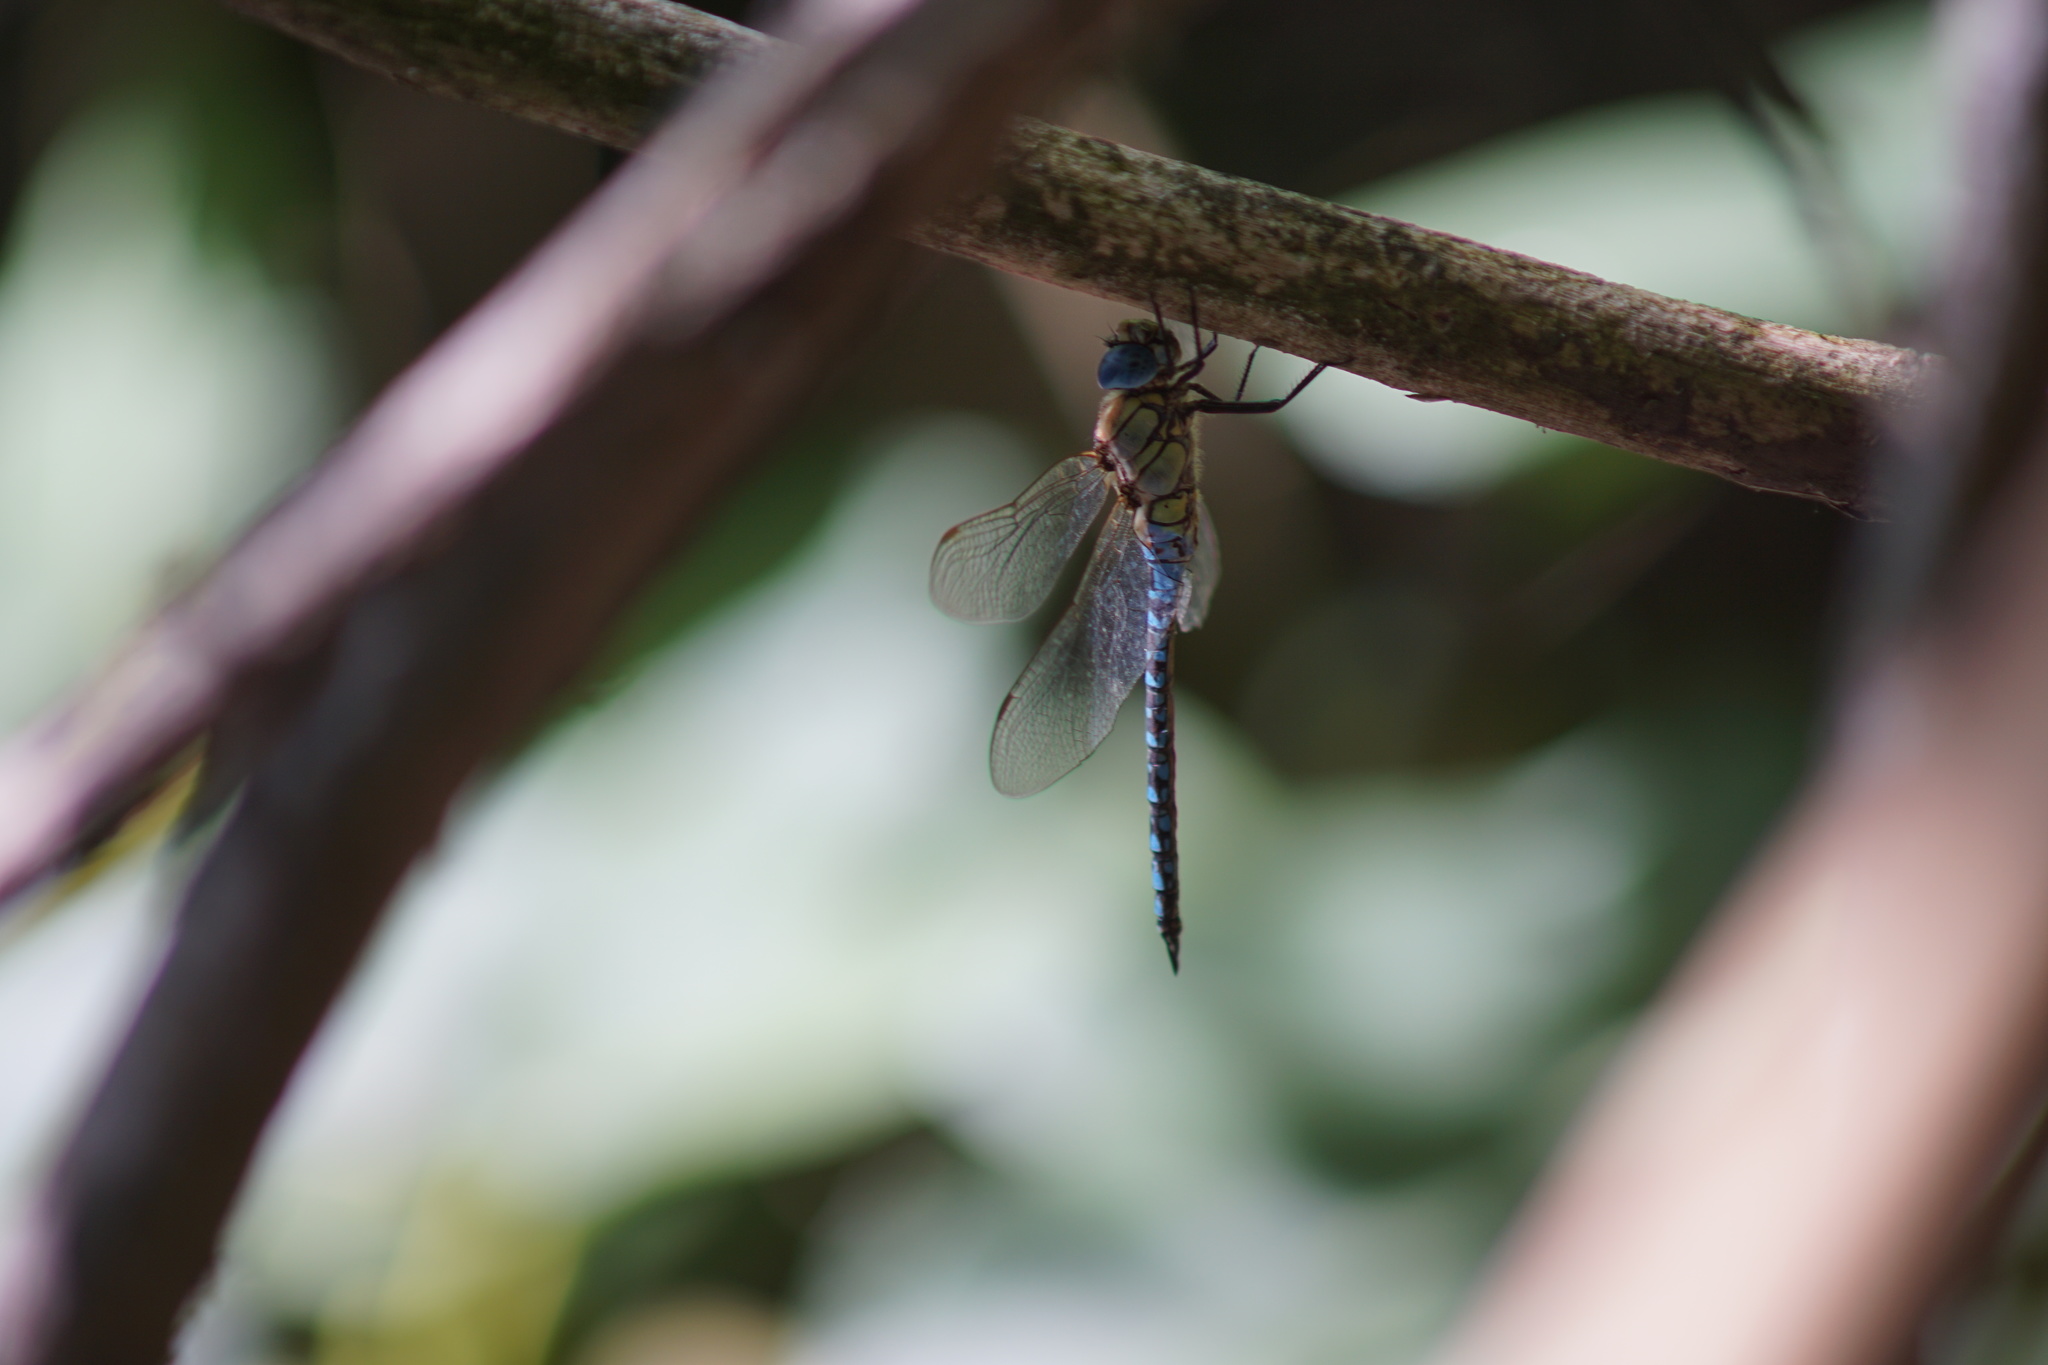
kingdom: Animalia
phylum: Arthropoda
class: Insecta
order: Odonata
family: Aeshnidae
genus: Aeshna
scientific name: Aeshna affinis
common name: Southern migrant hawker
